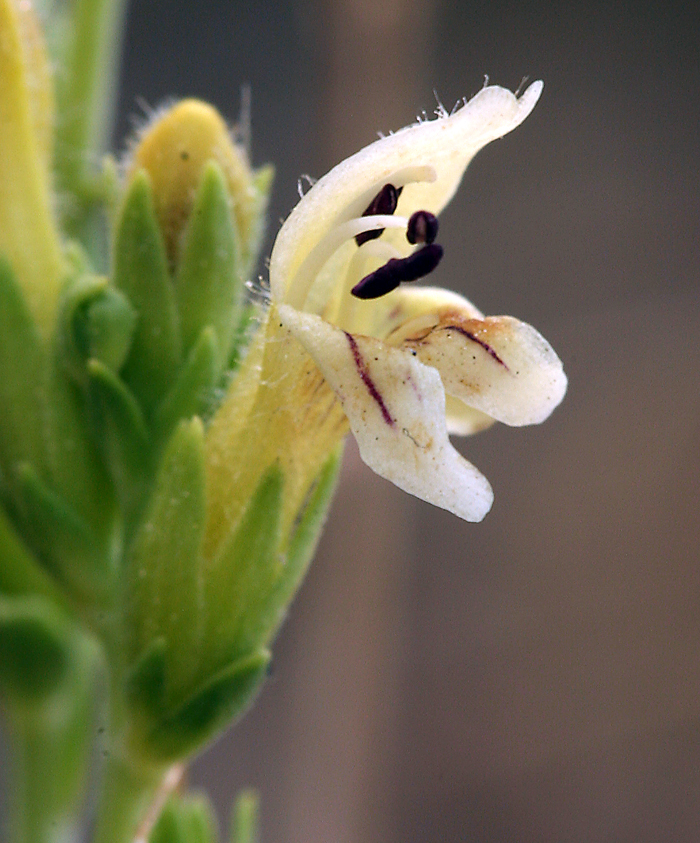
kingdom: Plantae
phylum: Tracheophyta
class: Magnoliopsida
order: Lamiales
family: Plantaginaceae
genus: Keckiella
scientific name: Keckiella rothrockii
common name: Rothrock's keckiella
